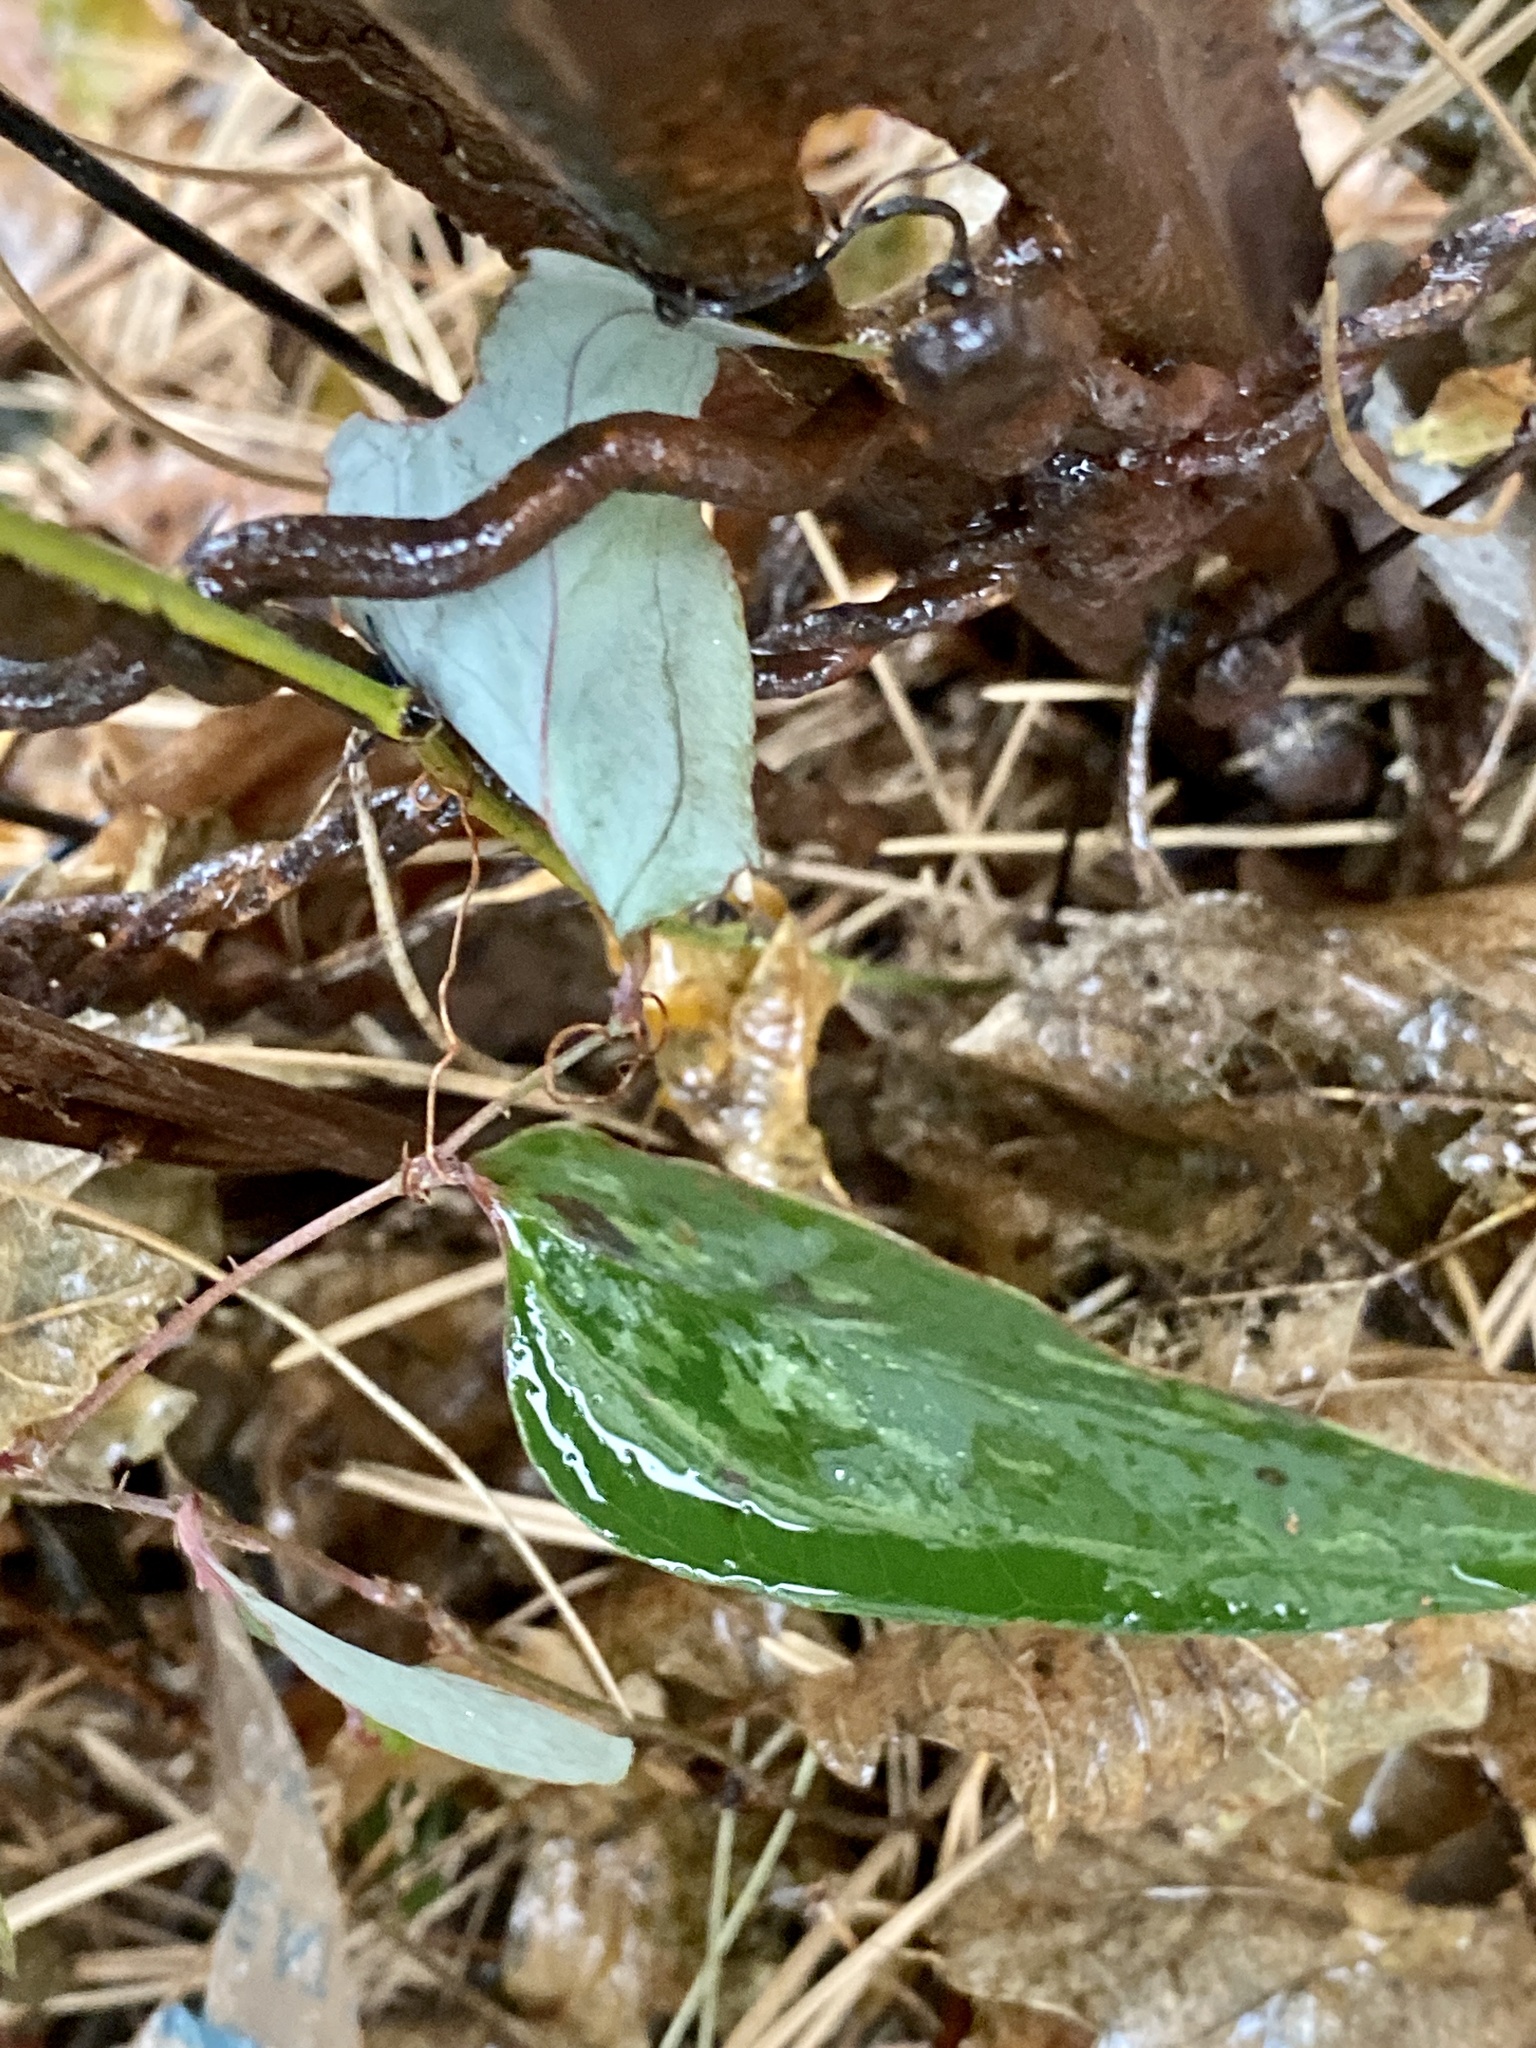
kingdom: Plantae
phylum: Tracheophyta
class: Liliopsida
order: Liliales
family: Smilacaceae
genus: Smilax
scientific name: Smilax glauca
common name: Cat greenbrier
